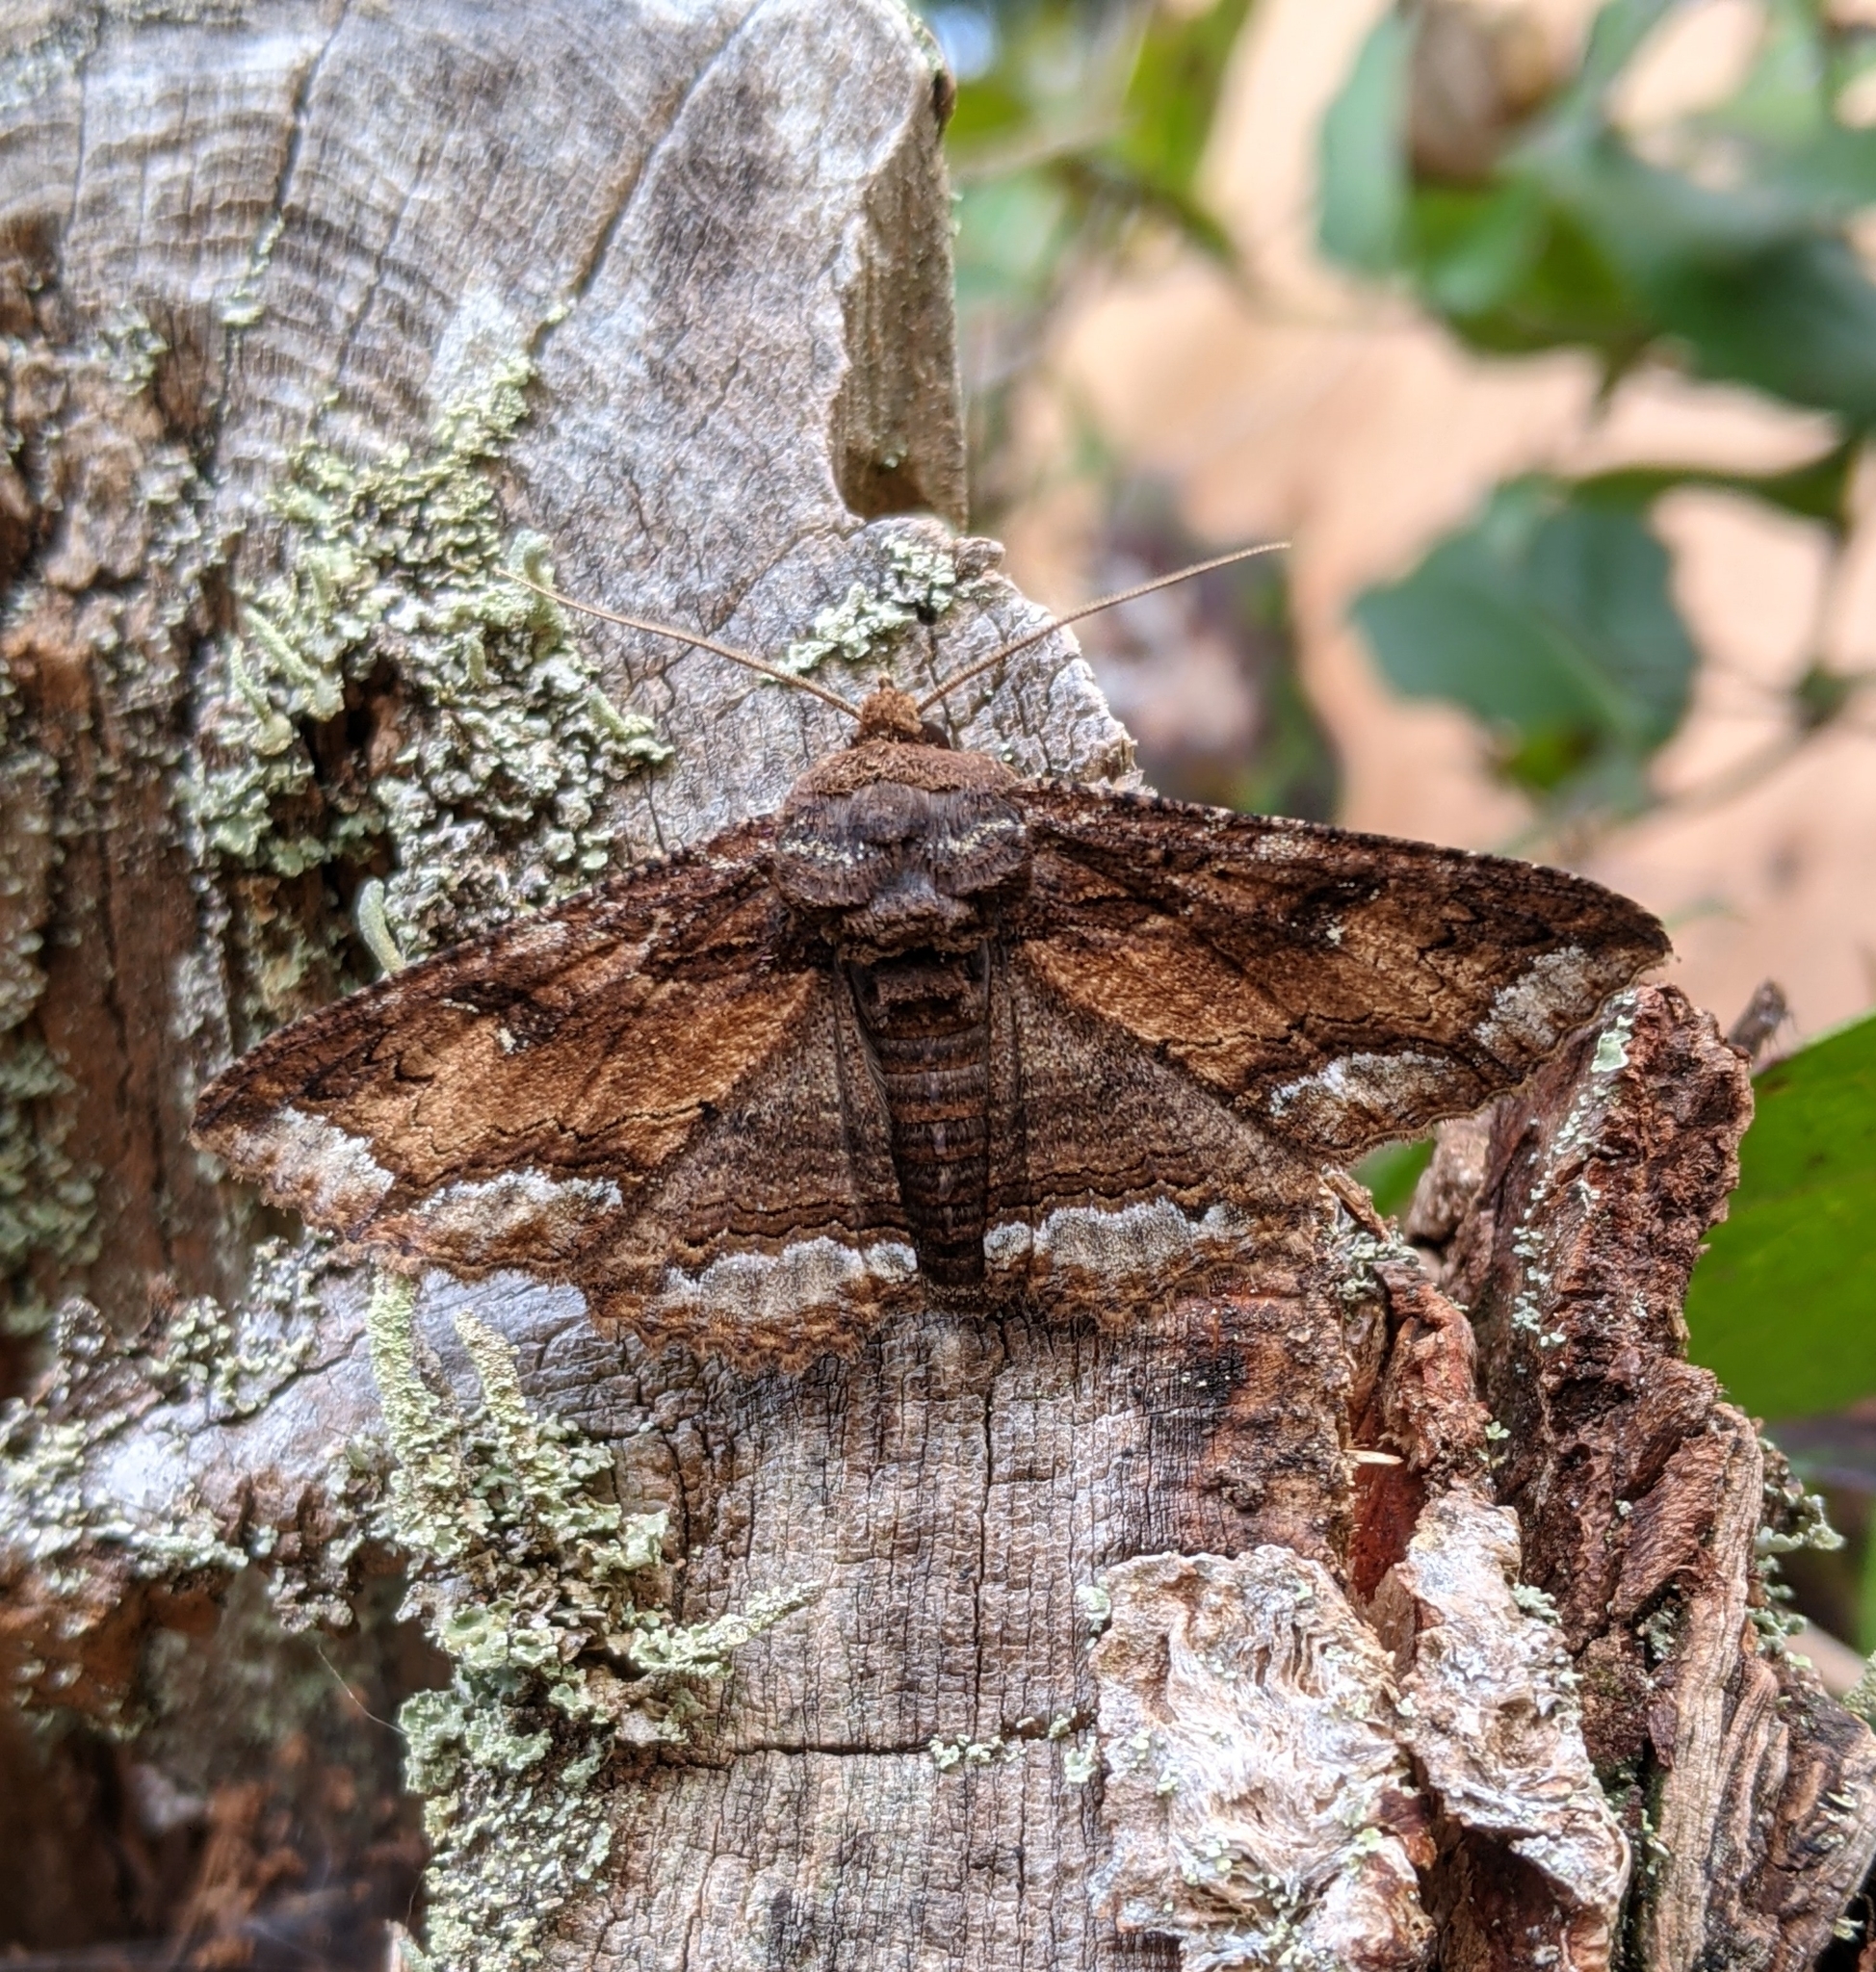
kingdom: Animalia
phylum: Arthropoda
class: Insecta
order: Lepidoptera
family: Erebidae
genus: Zale
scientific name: Zale lunata
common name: Lunate zale moth
